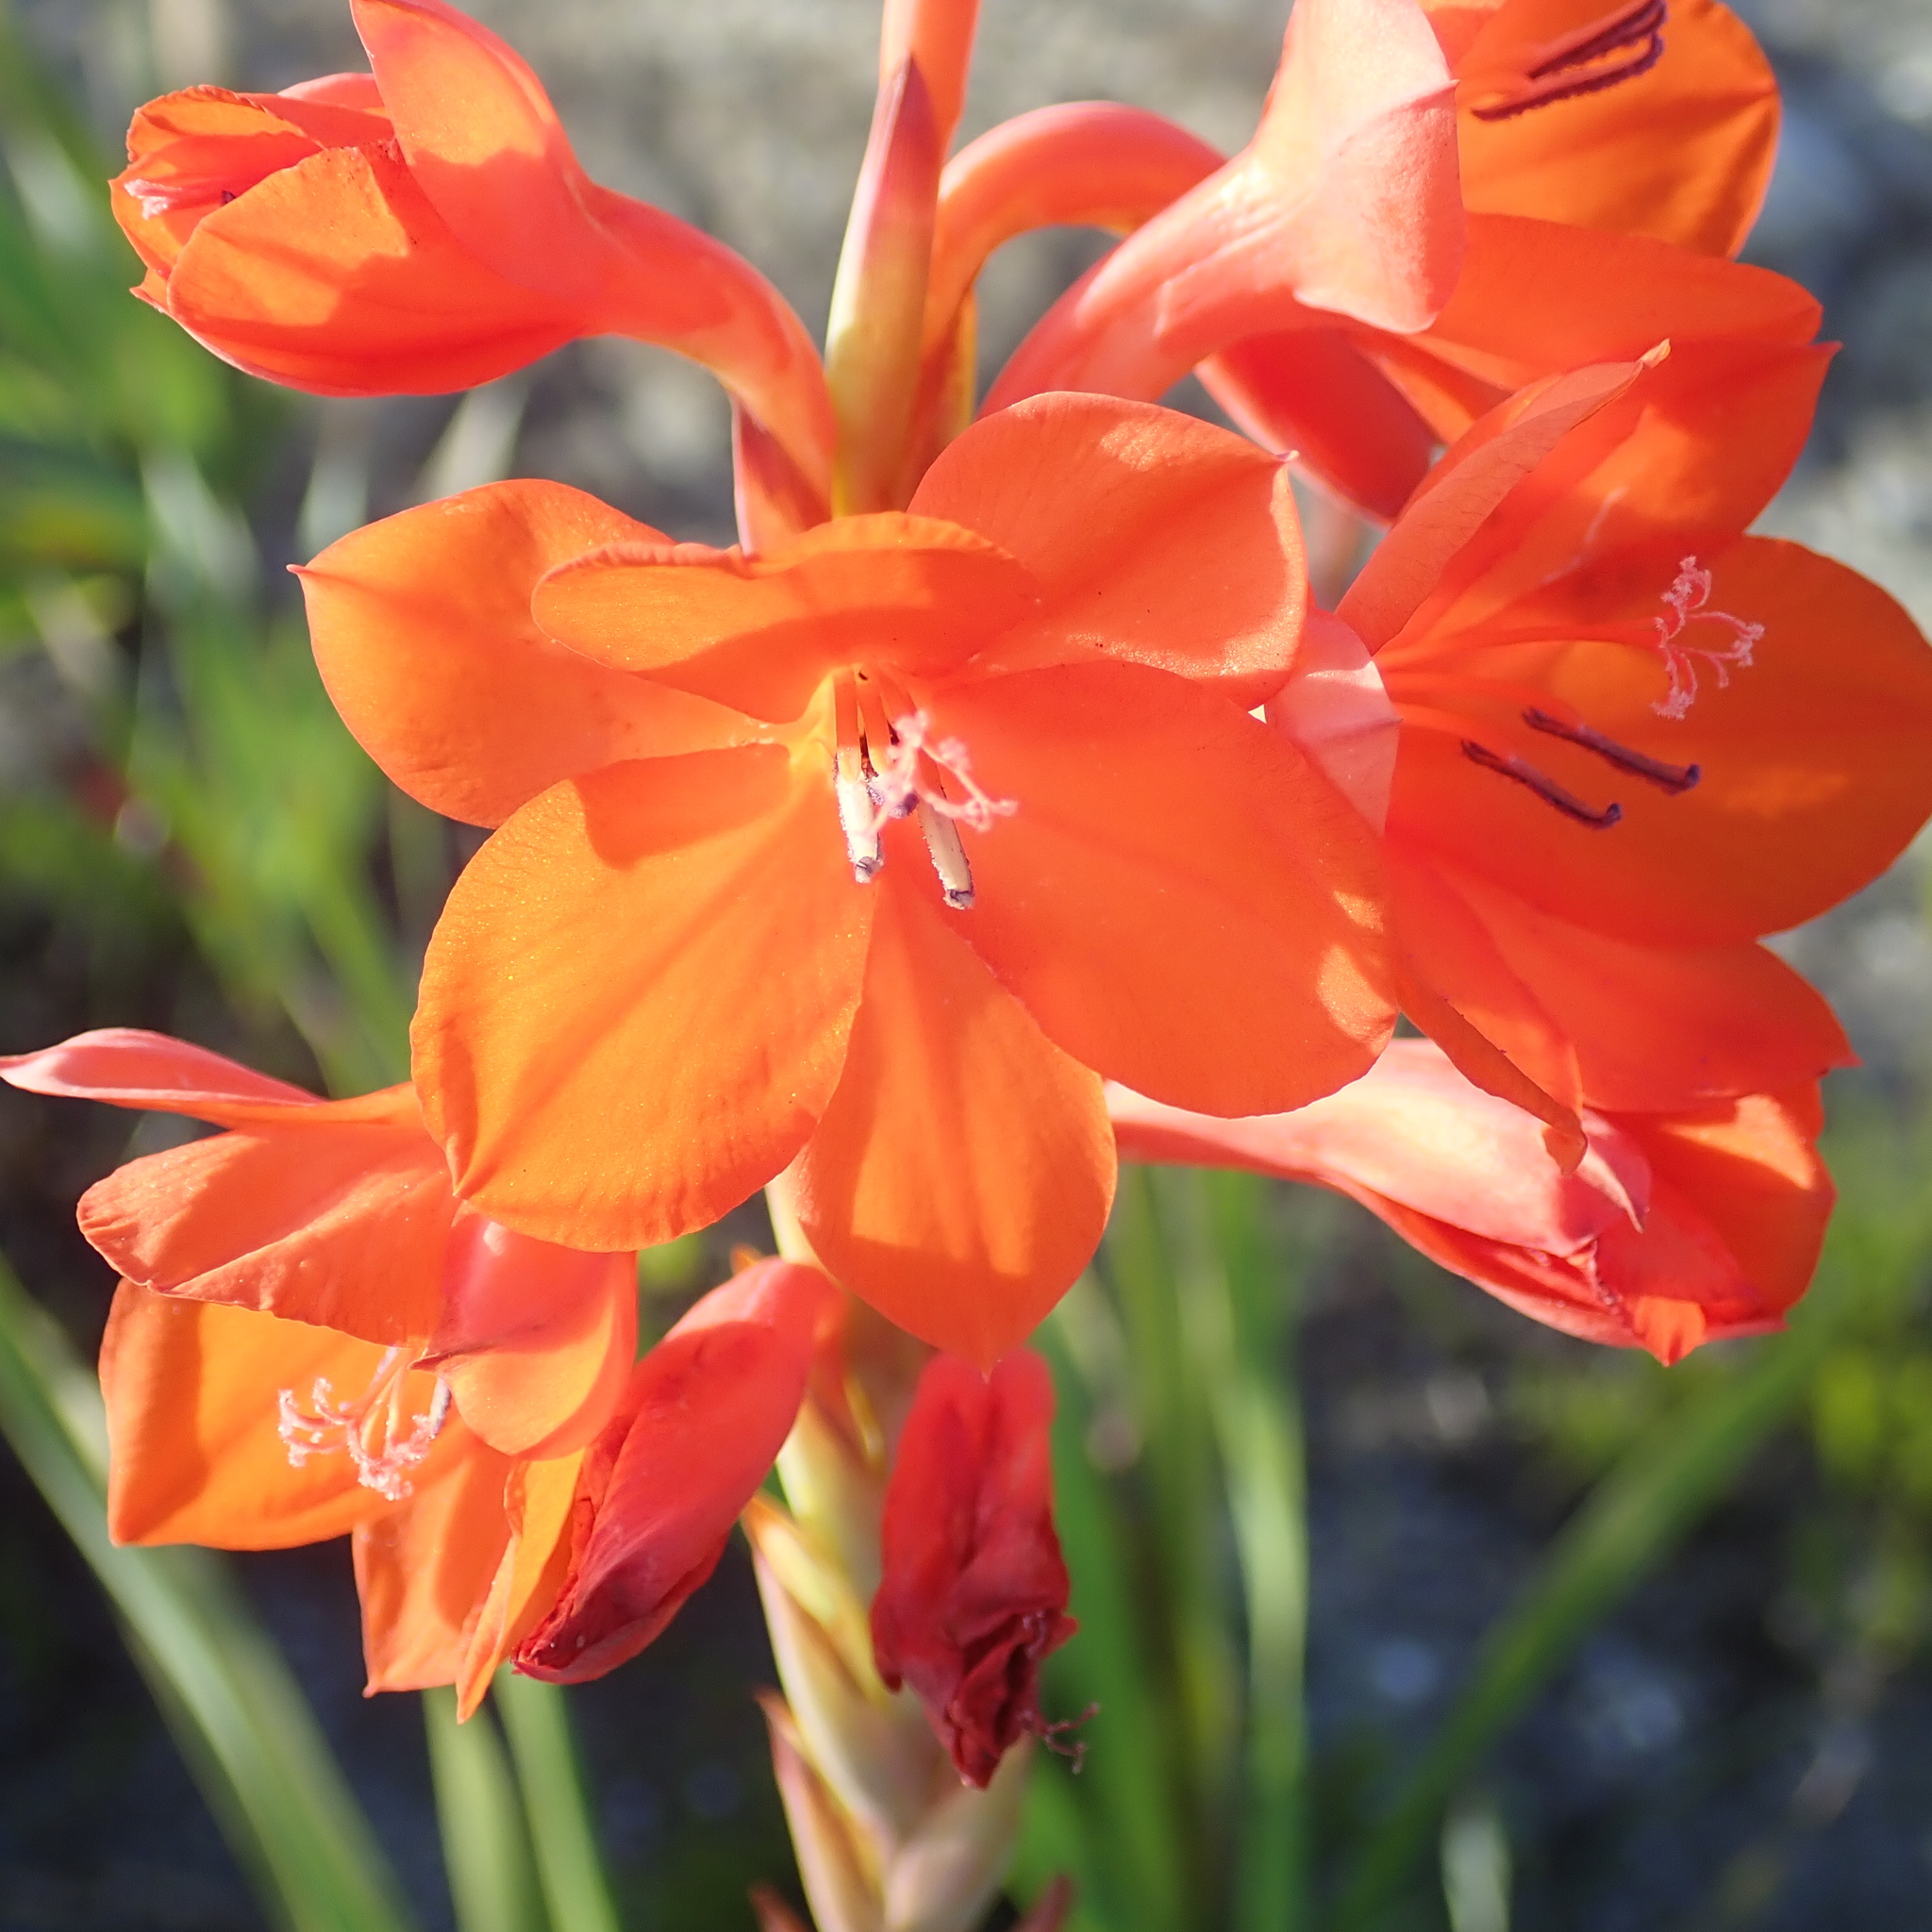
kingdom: Plantae
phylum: Tracheophyta
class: Liliopsida
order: Asparagales
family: Iridaceae
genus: Watsonia
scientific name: Watsonia pillansii
